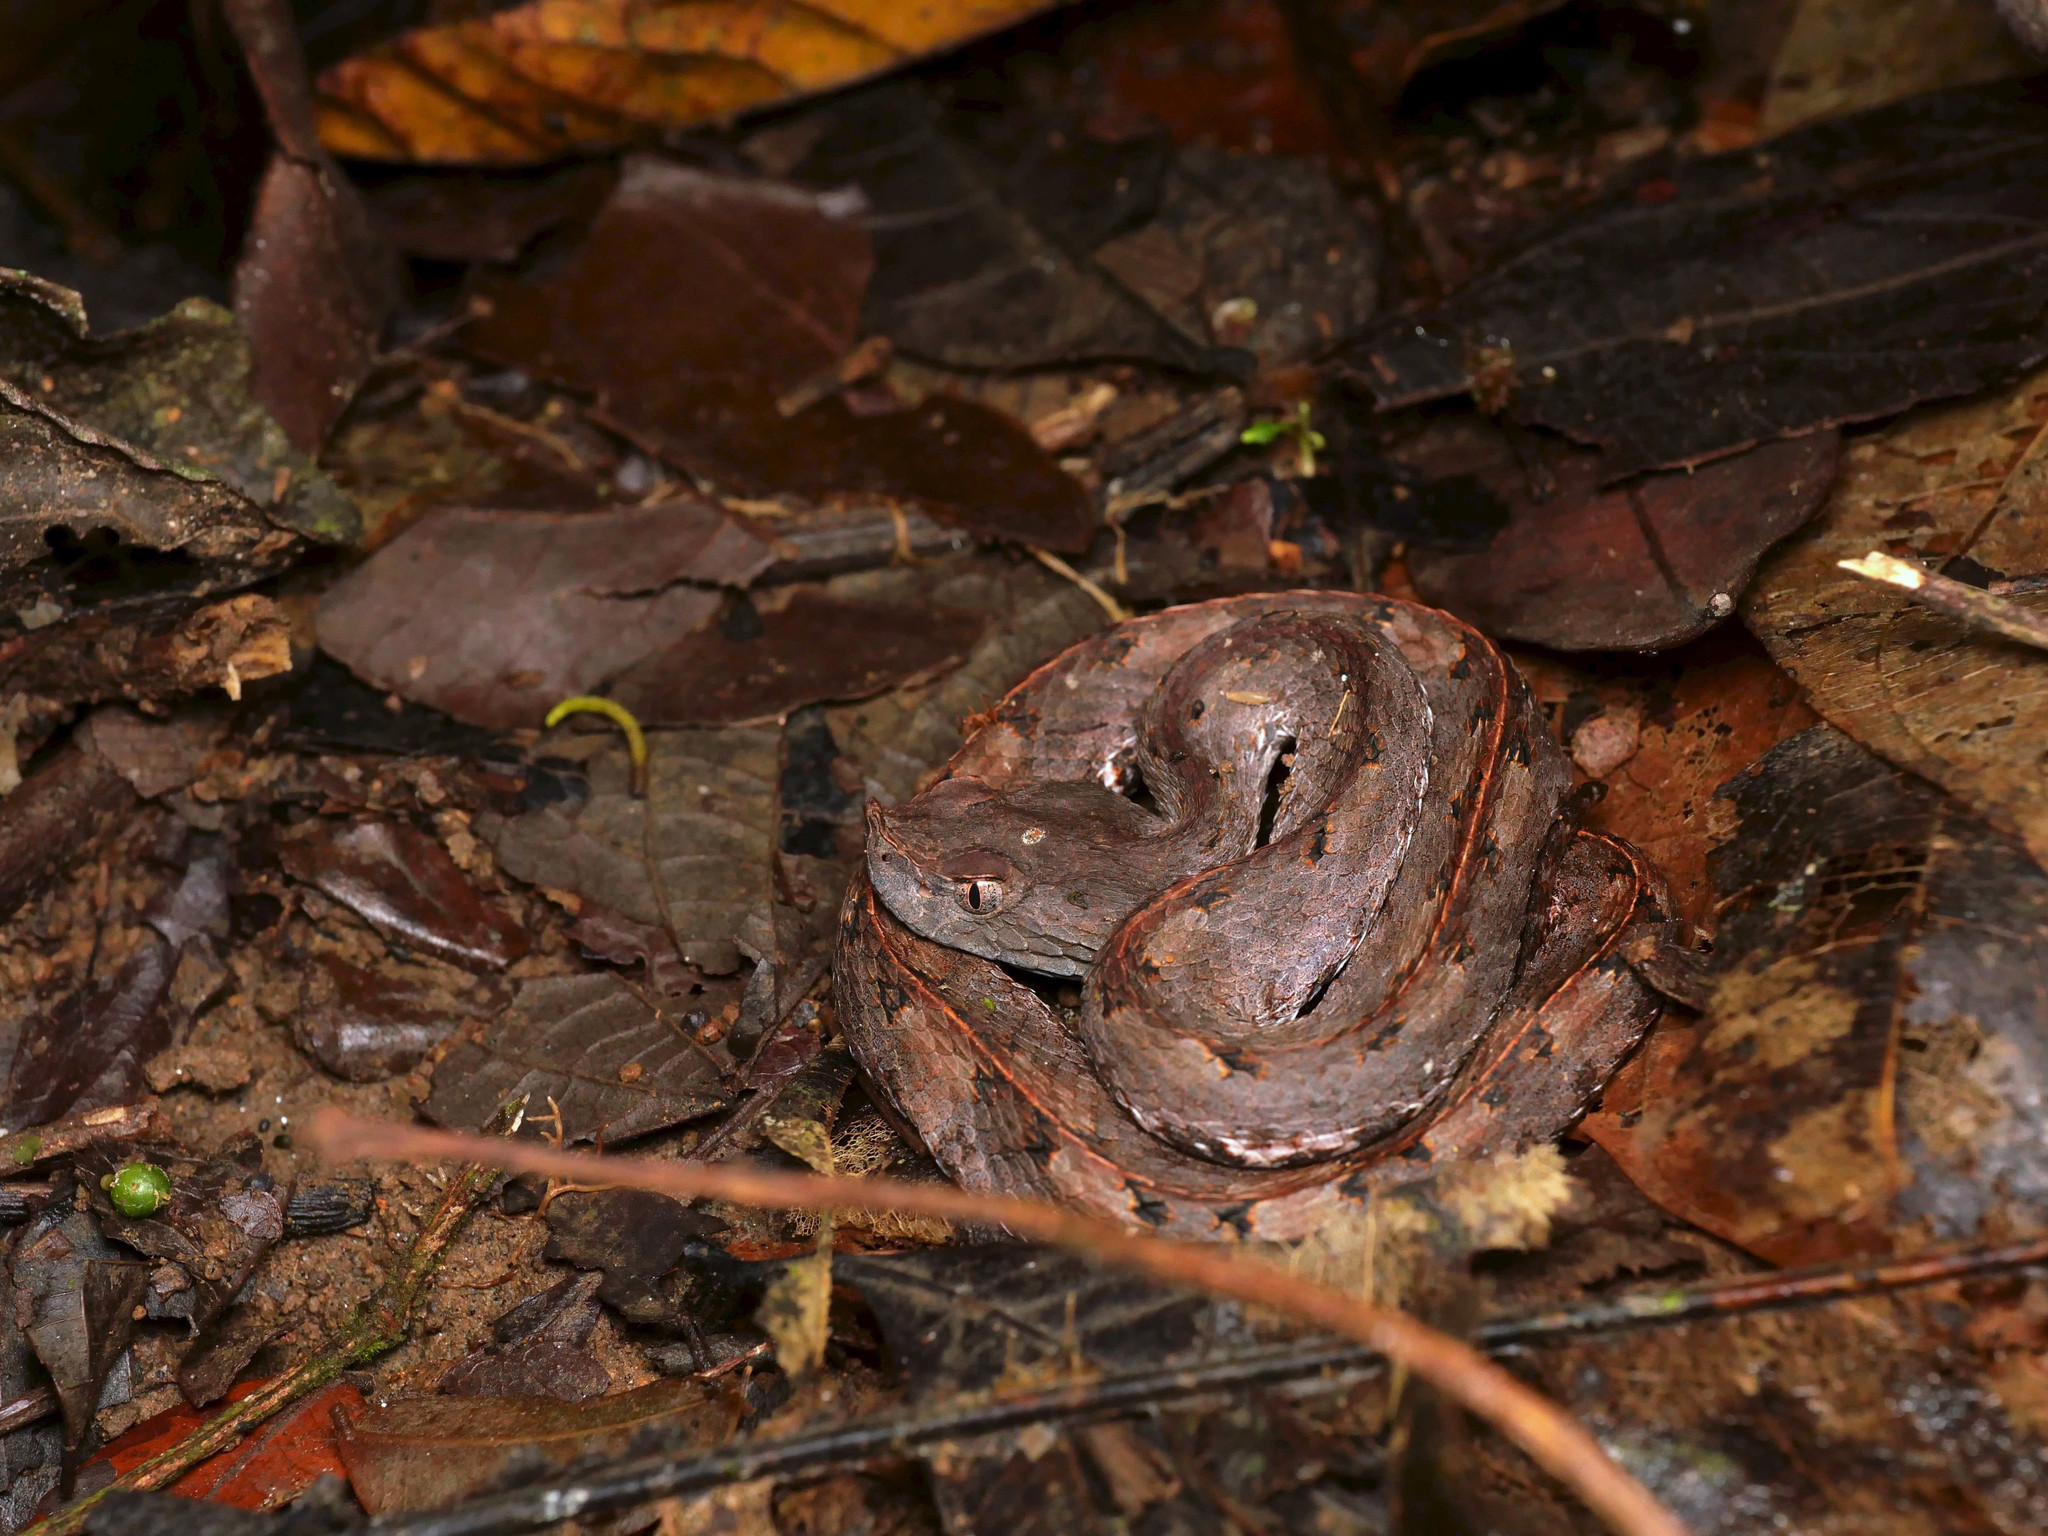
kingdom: Animalia
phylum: Chordata
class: Squamata
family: Viperidae
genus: Porthidium
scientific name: Porthidium nasutum
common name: Hognosed pit viper
